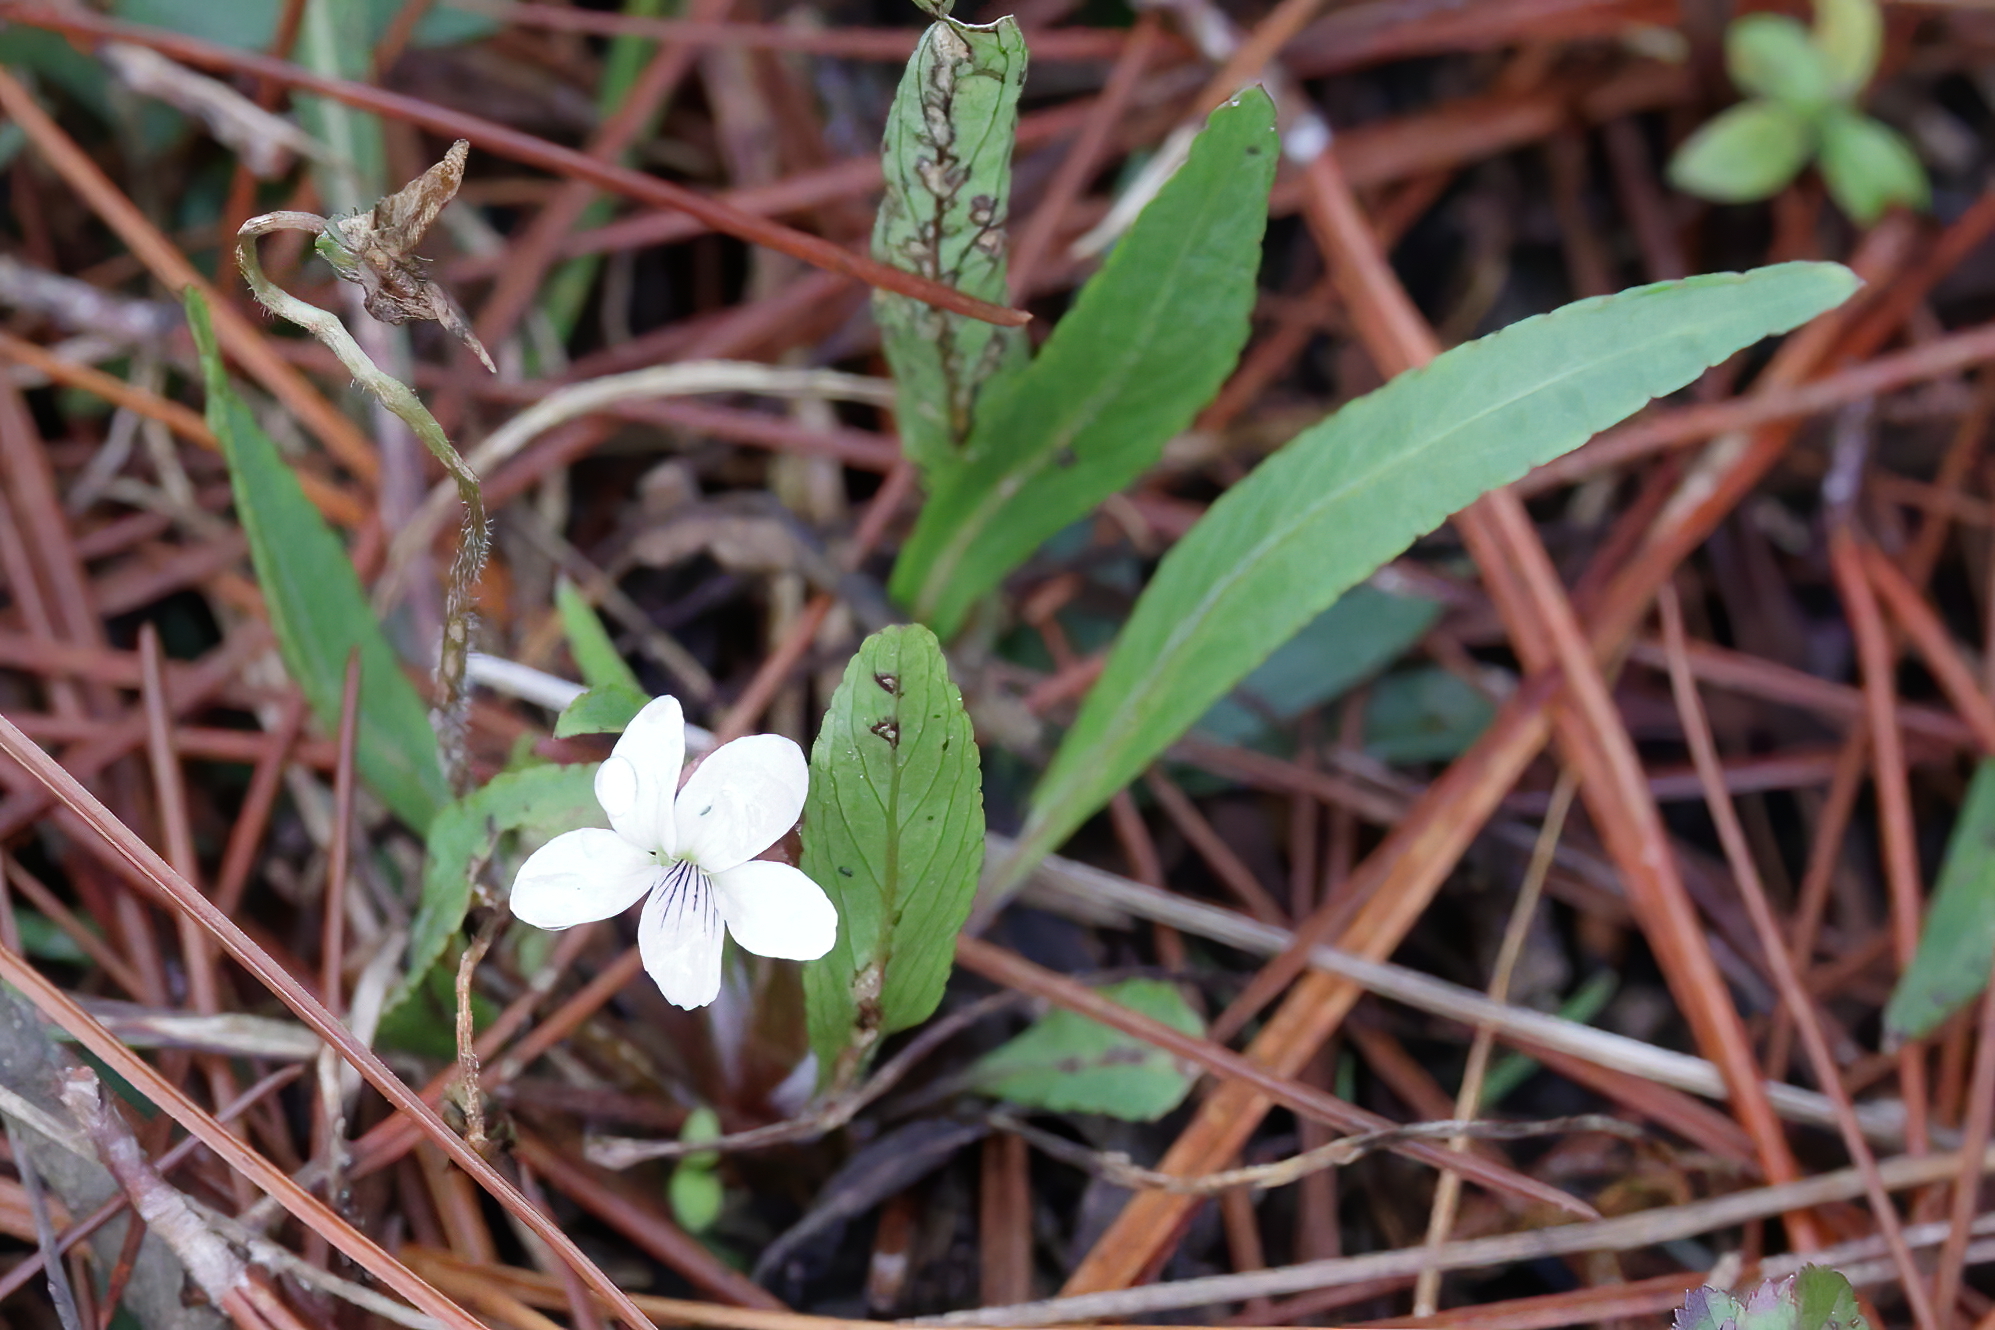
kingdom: Plantae
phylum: Tracheophyta
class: Magnoliopsida
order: Malpighiales
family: Violaceae
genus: Viola
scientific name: Viola lanceolata
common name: Bog white violet
